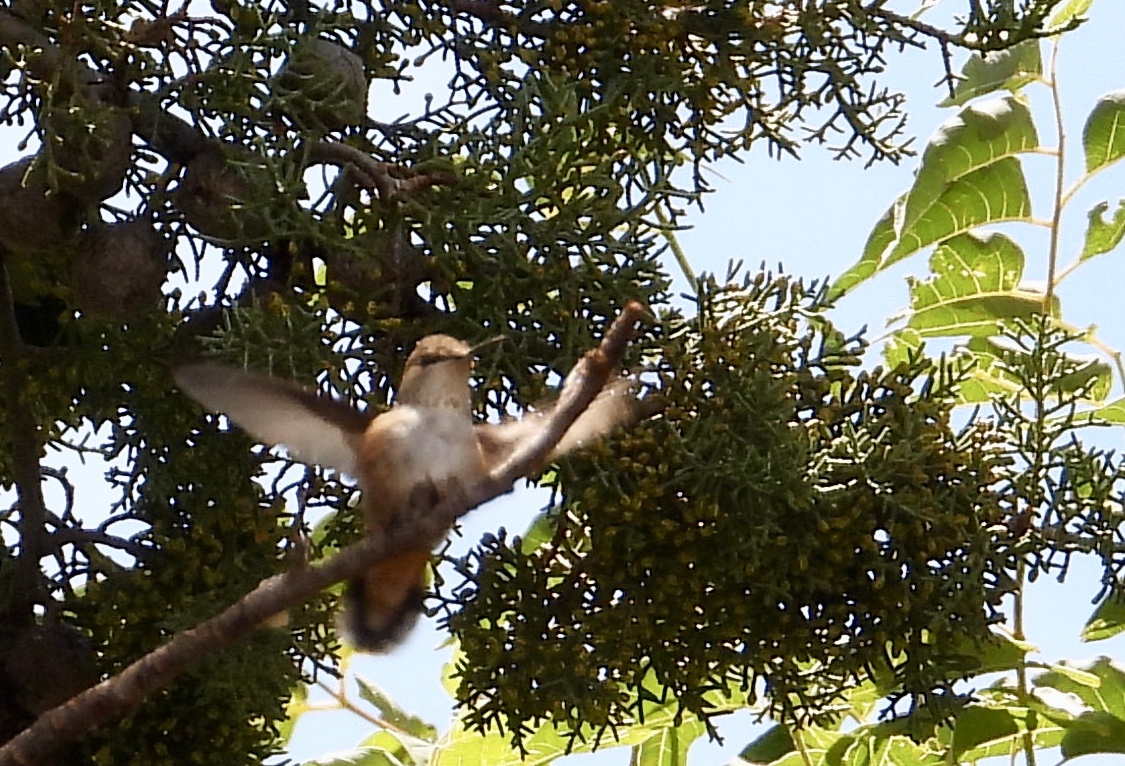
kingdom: Animalia
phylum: Chordata
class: Aves
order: Apodiformes
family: Trochilidae
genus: Selasphorus
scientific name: Selasphorus rufus
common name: Rufous hummingbird
